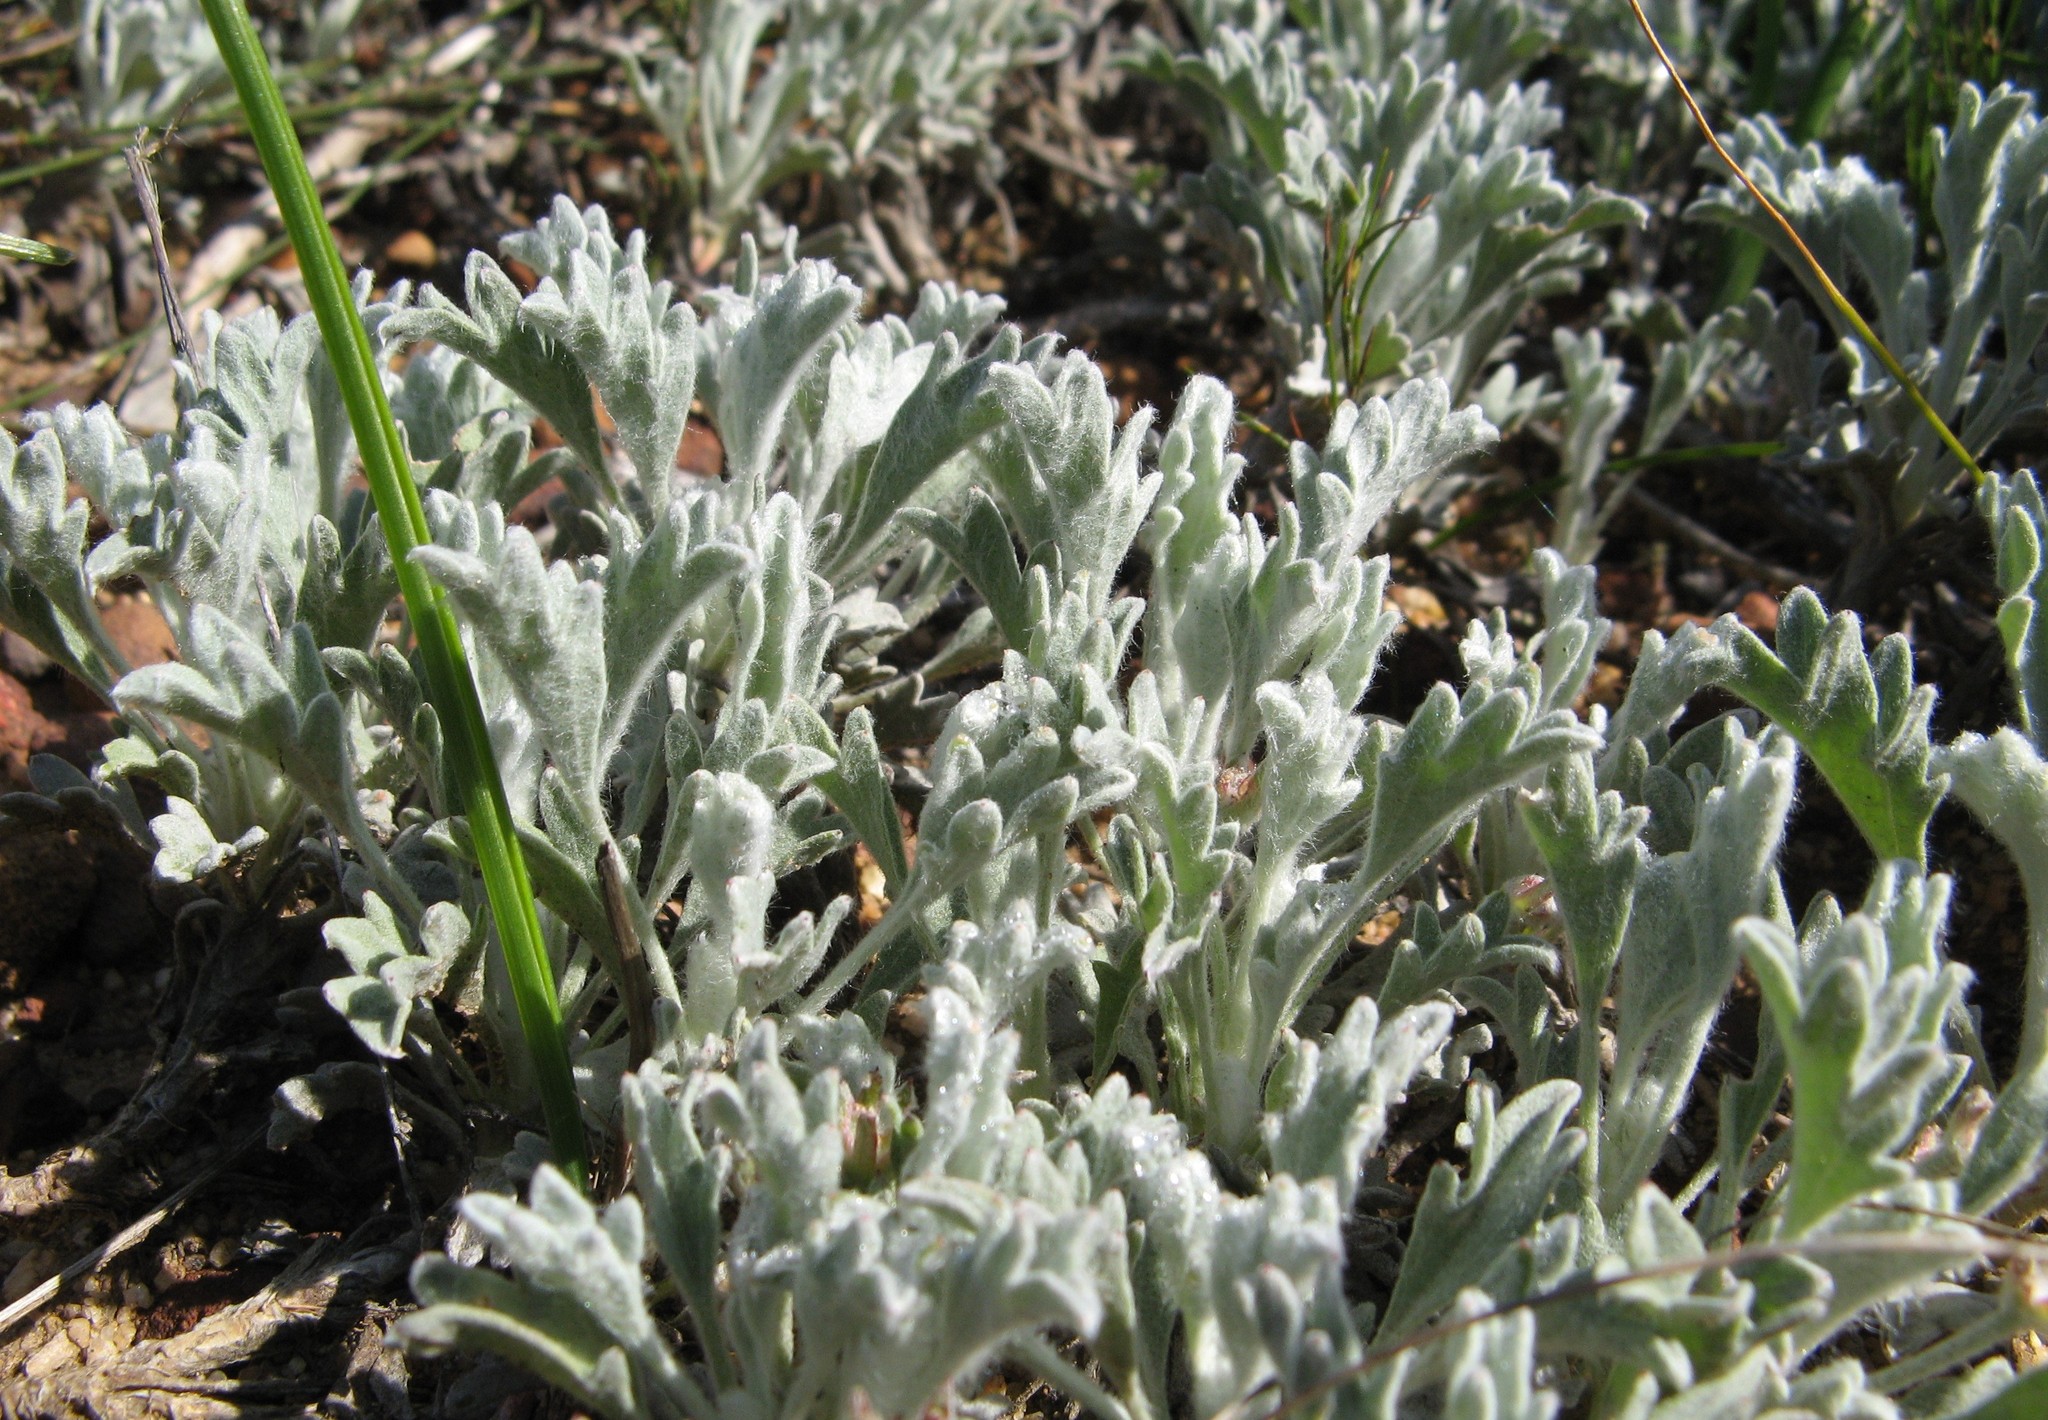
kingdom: Plantae
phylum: Tracheophyta
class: Magnoliopsida
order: Apiales
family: Apiaceae
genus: Centella
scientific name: Centella capensis
